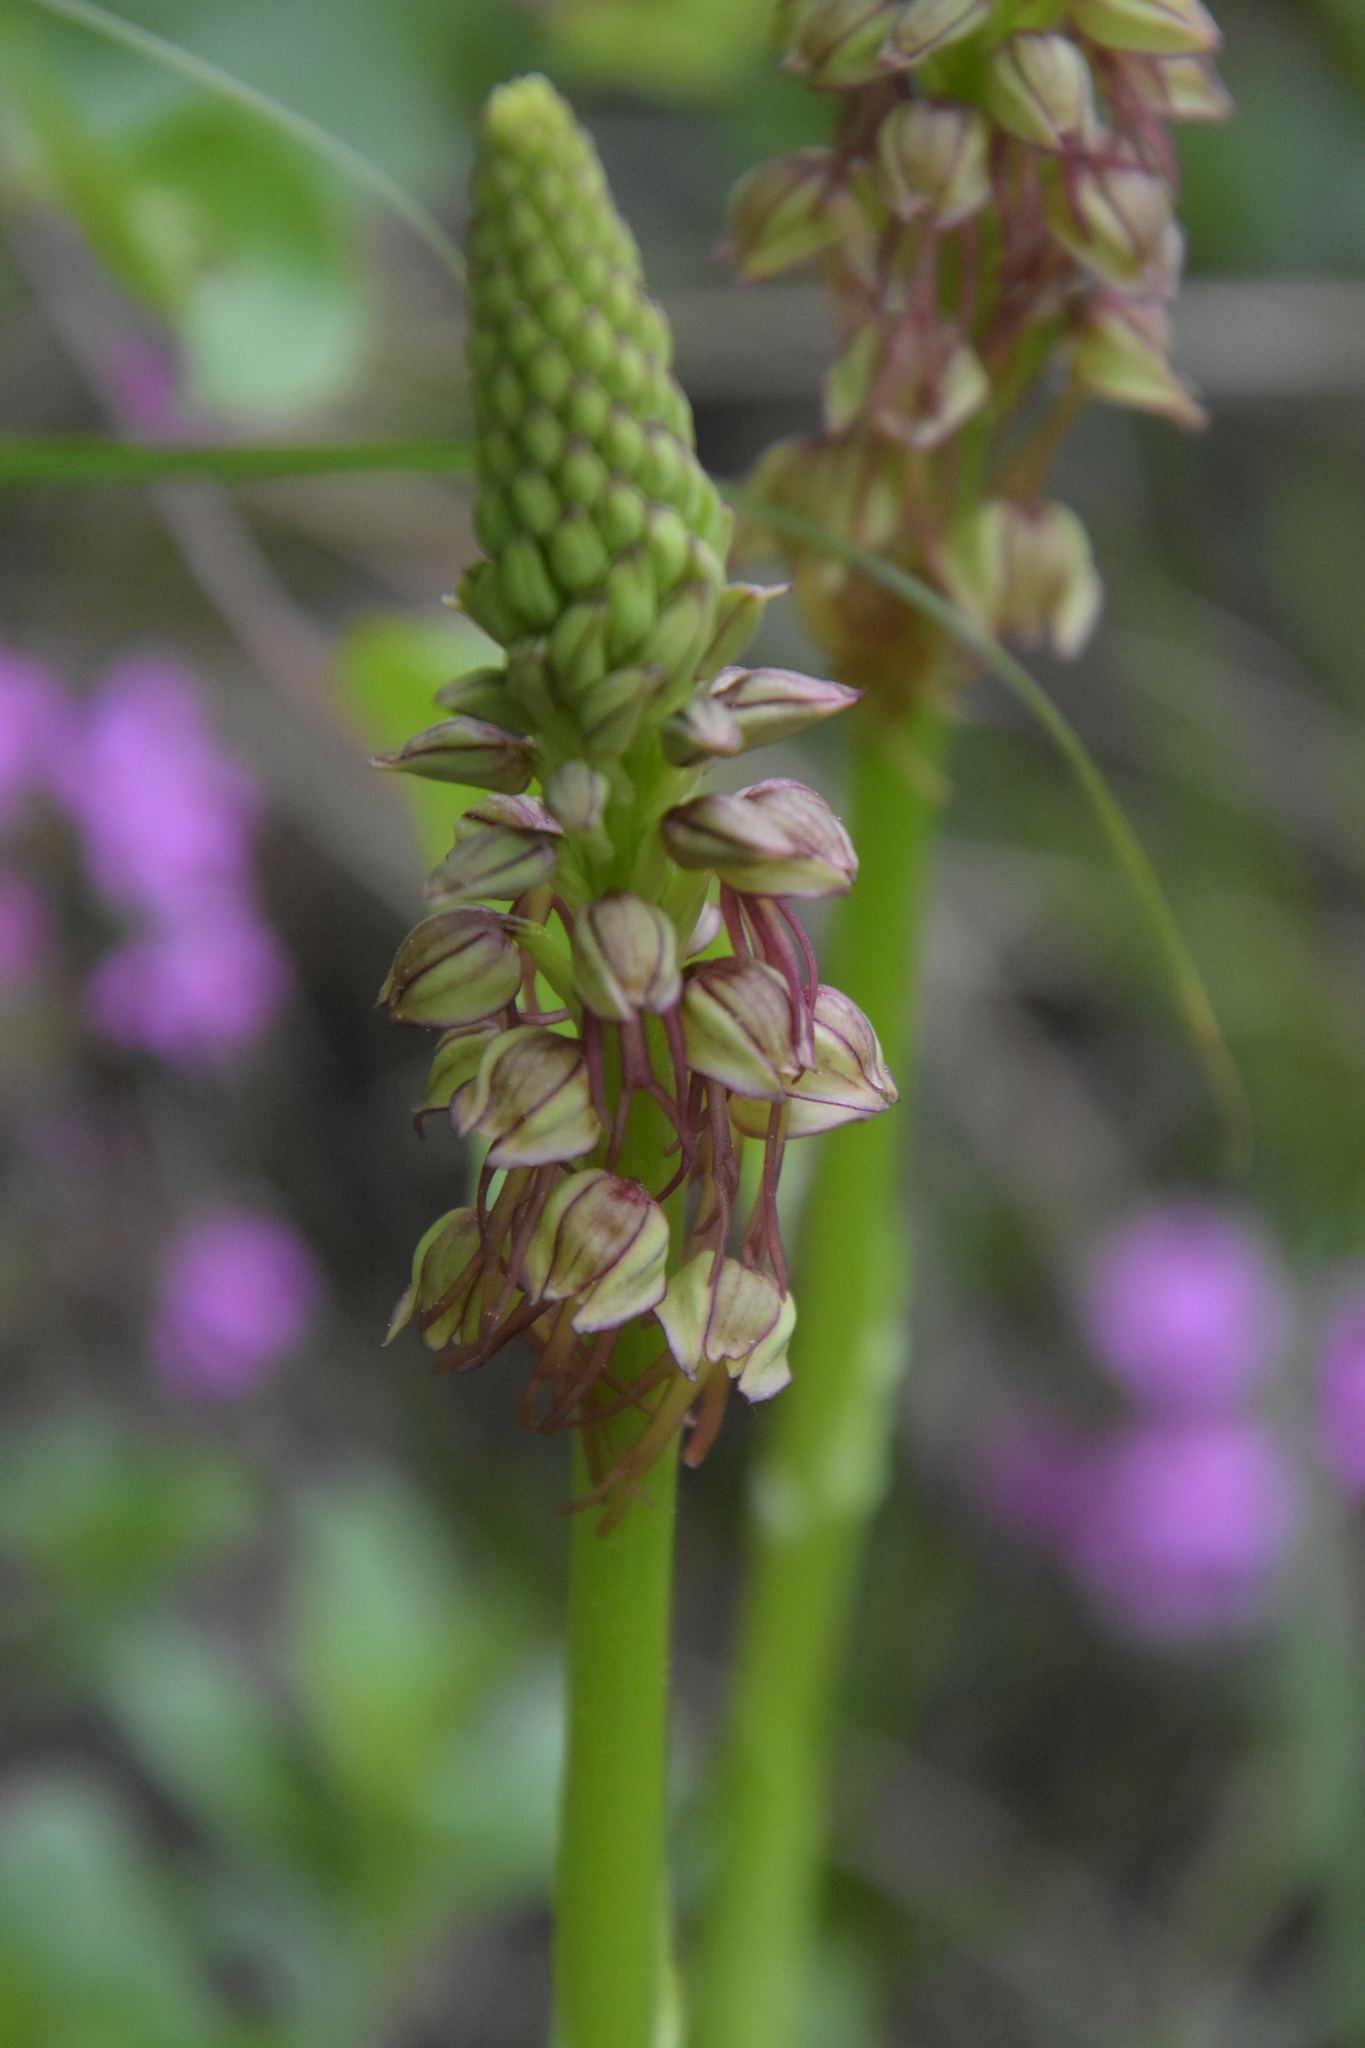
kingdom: Plantae
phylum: Tracheophyta
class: Liliopsida
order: Asparagales
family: Orchidaceae
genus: Orchis
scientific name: Orchis anthropophora
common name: Man orchid
